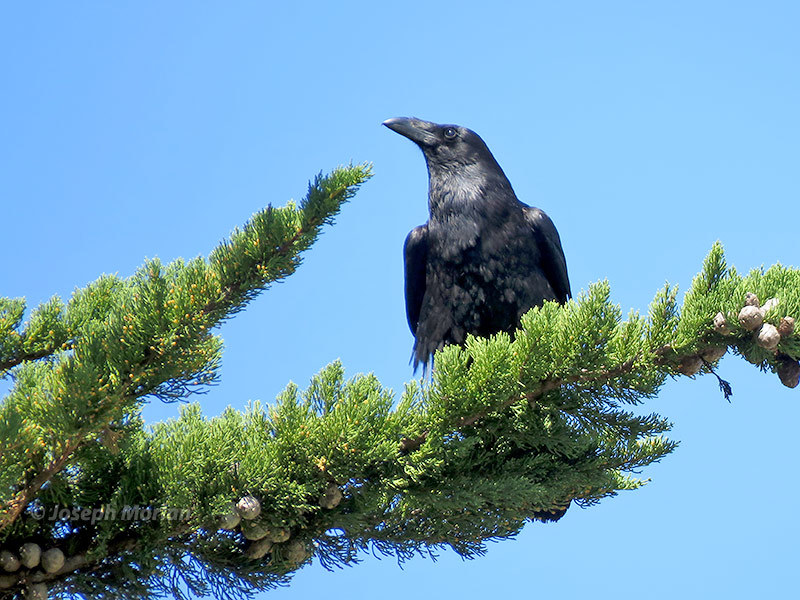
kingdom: Animalia
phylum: Chordata
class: Aves
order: Passeriformes
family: Corvidae
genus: Corvus
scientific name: Corvus corax
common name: Common raven
